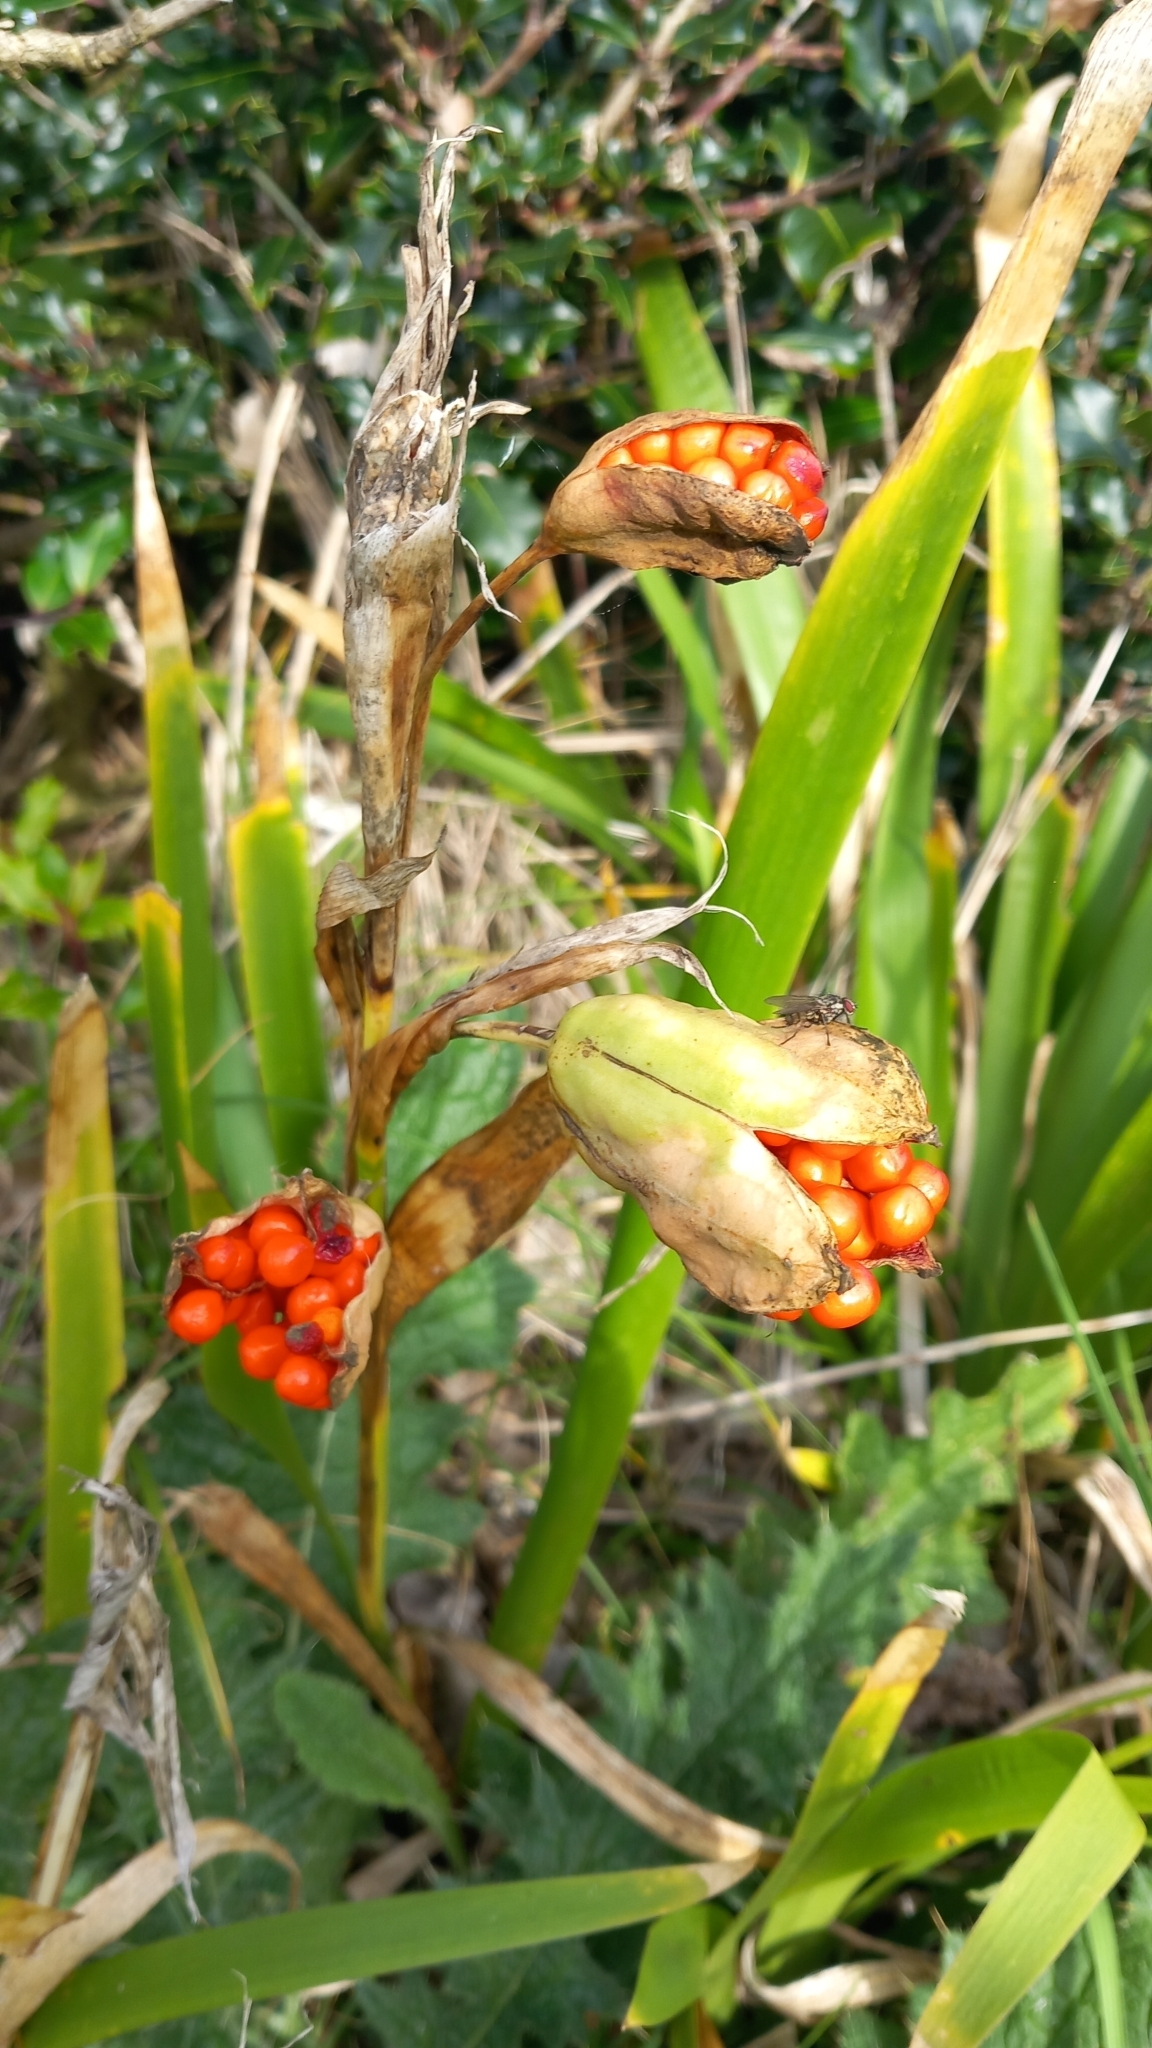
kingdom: Plantae
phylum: Tracheophyta
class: Liliopsida
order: Asparagales
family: Iridaceae
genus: Iris
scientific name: Iris foetidissima
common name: Stinking iris
